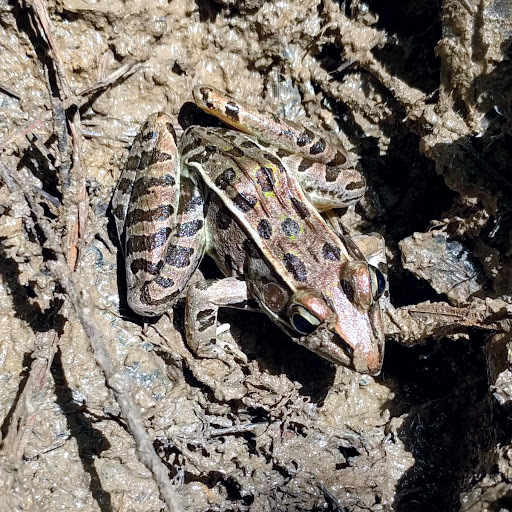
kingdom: Animalia
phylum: Chordata
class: Amphibia
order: Anura
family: Ranidae
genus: Lithobates
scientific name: Lithobates sphenocephalus
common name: Southern leopard frog
